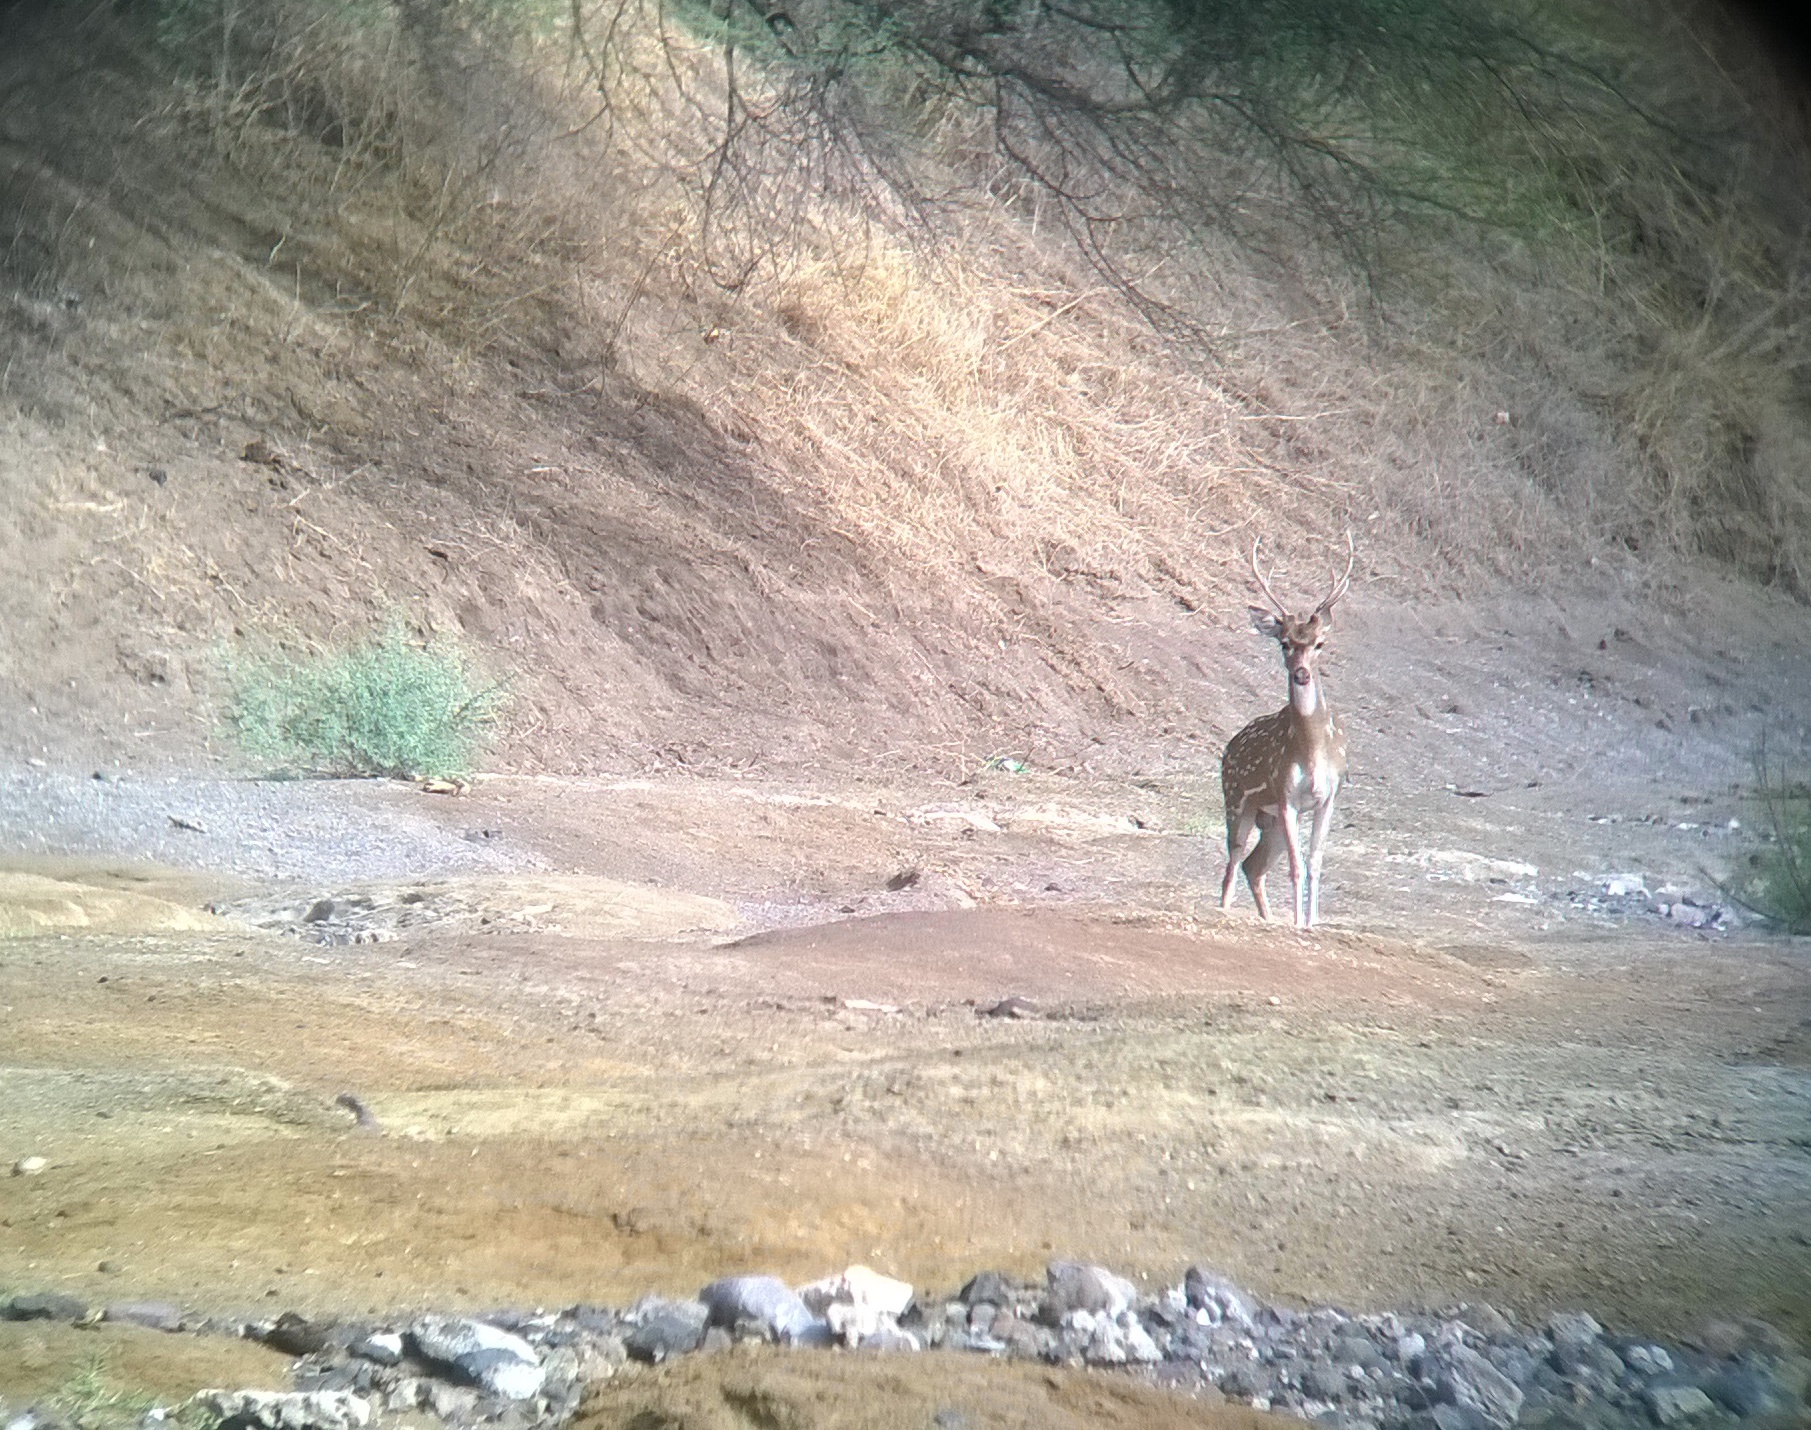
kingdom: Animalia
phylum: Chordata
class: Mammalia
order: Artiodactyla
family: Cervidae
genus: Axis
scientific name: Axis axis
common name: Chital
